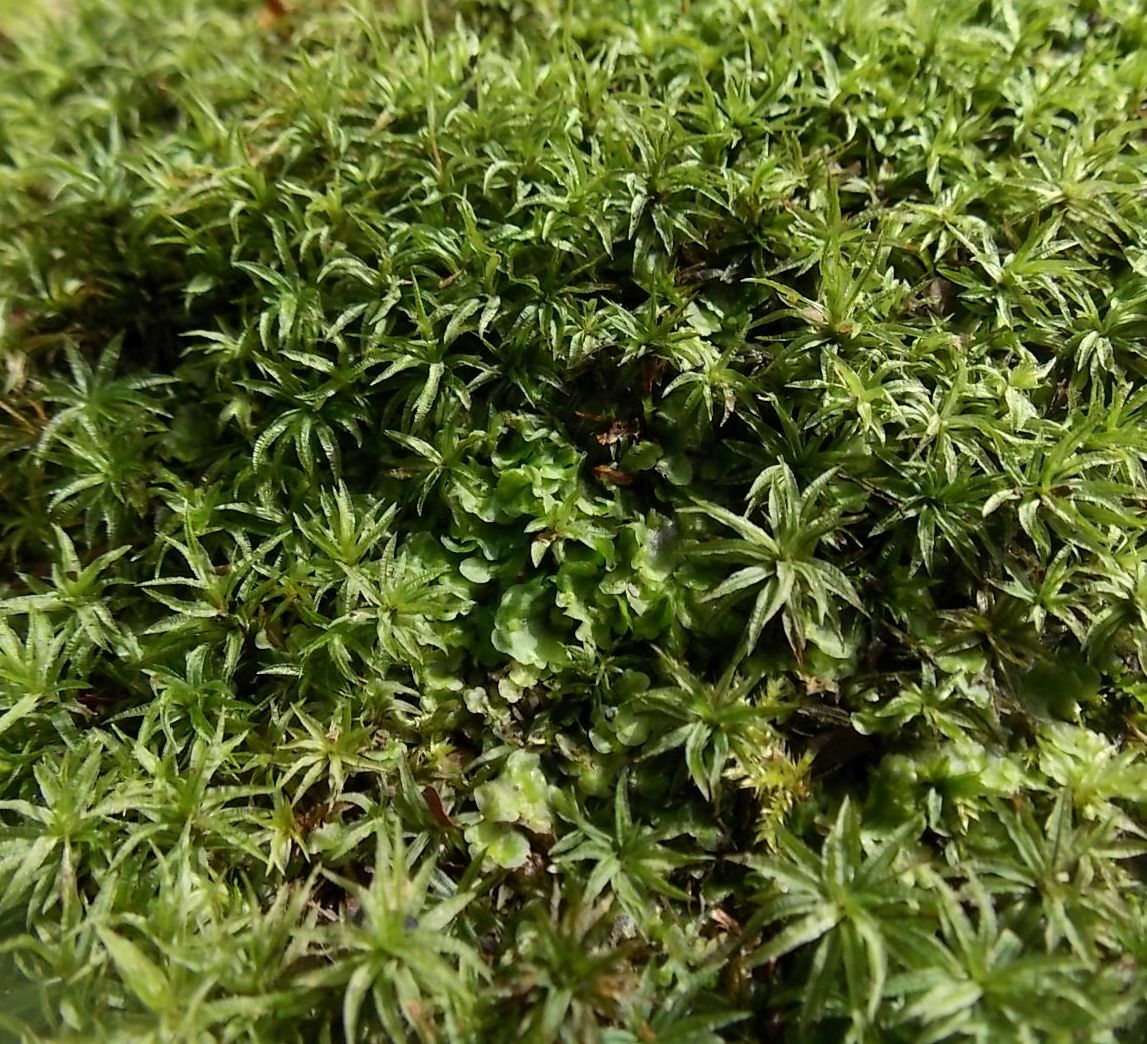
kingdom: Plantae
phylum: Bryophyta
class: Polytrichopsida
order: Polytrichales
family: Polytrichaceae
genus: Atrichum
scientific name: Atrichum undulatum
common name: Common smoothcap
